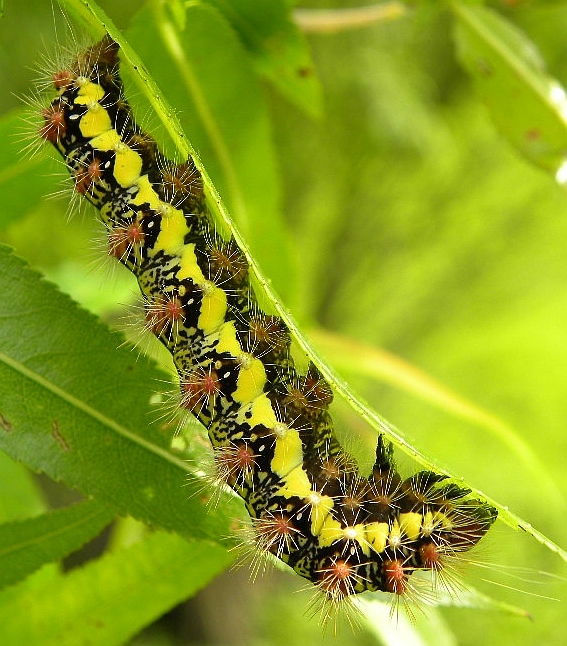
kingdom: Animalia
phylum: Arthropoda
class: Insecta
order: Lepidoptera
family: Noctuidae
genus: Acronicta
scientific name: Acronicta oblinita
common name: Smeared dagger
